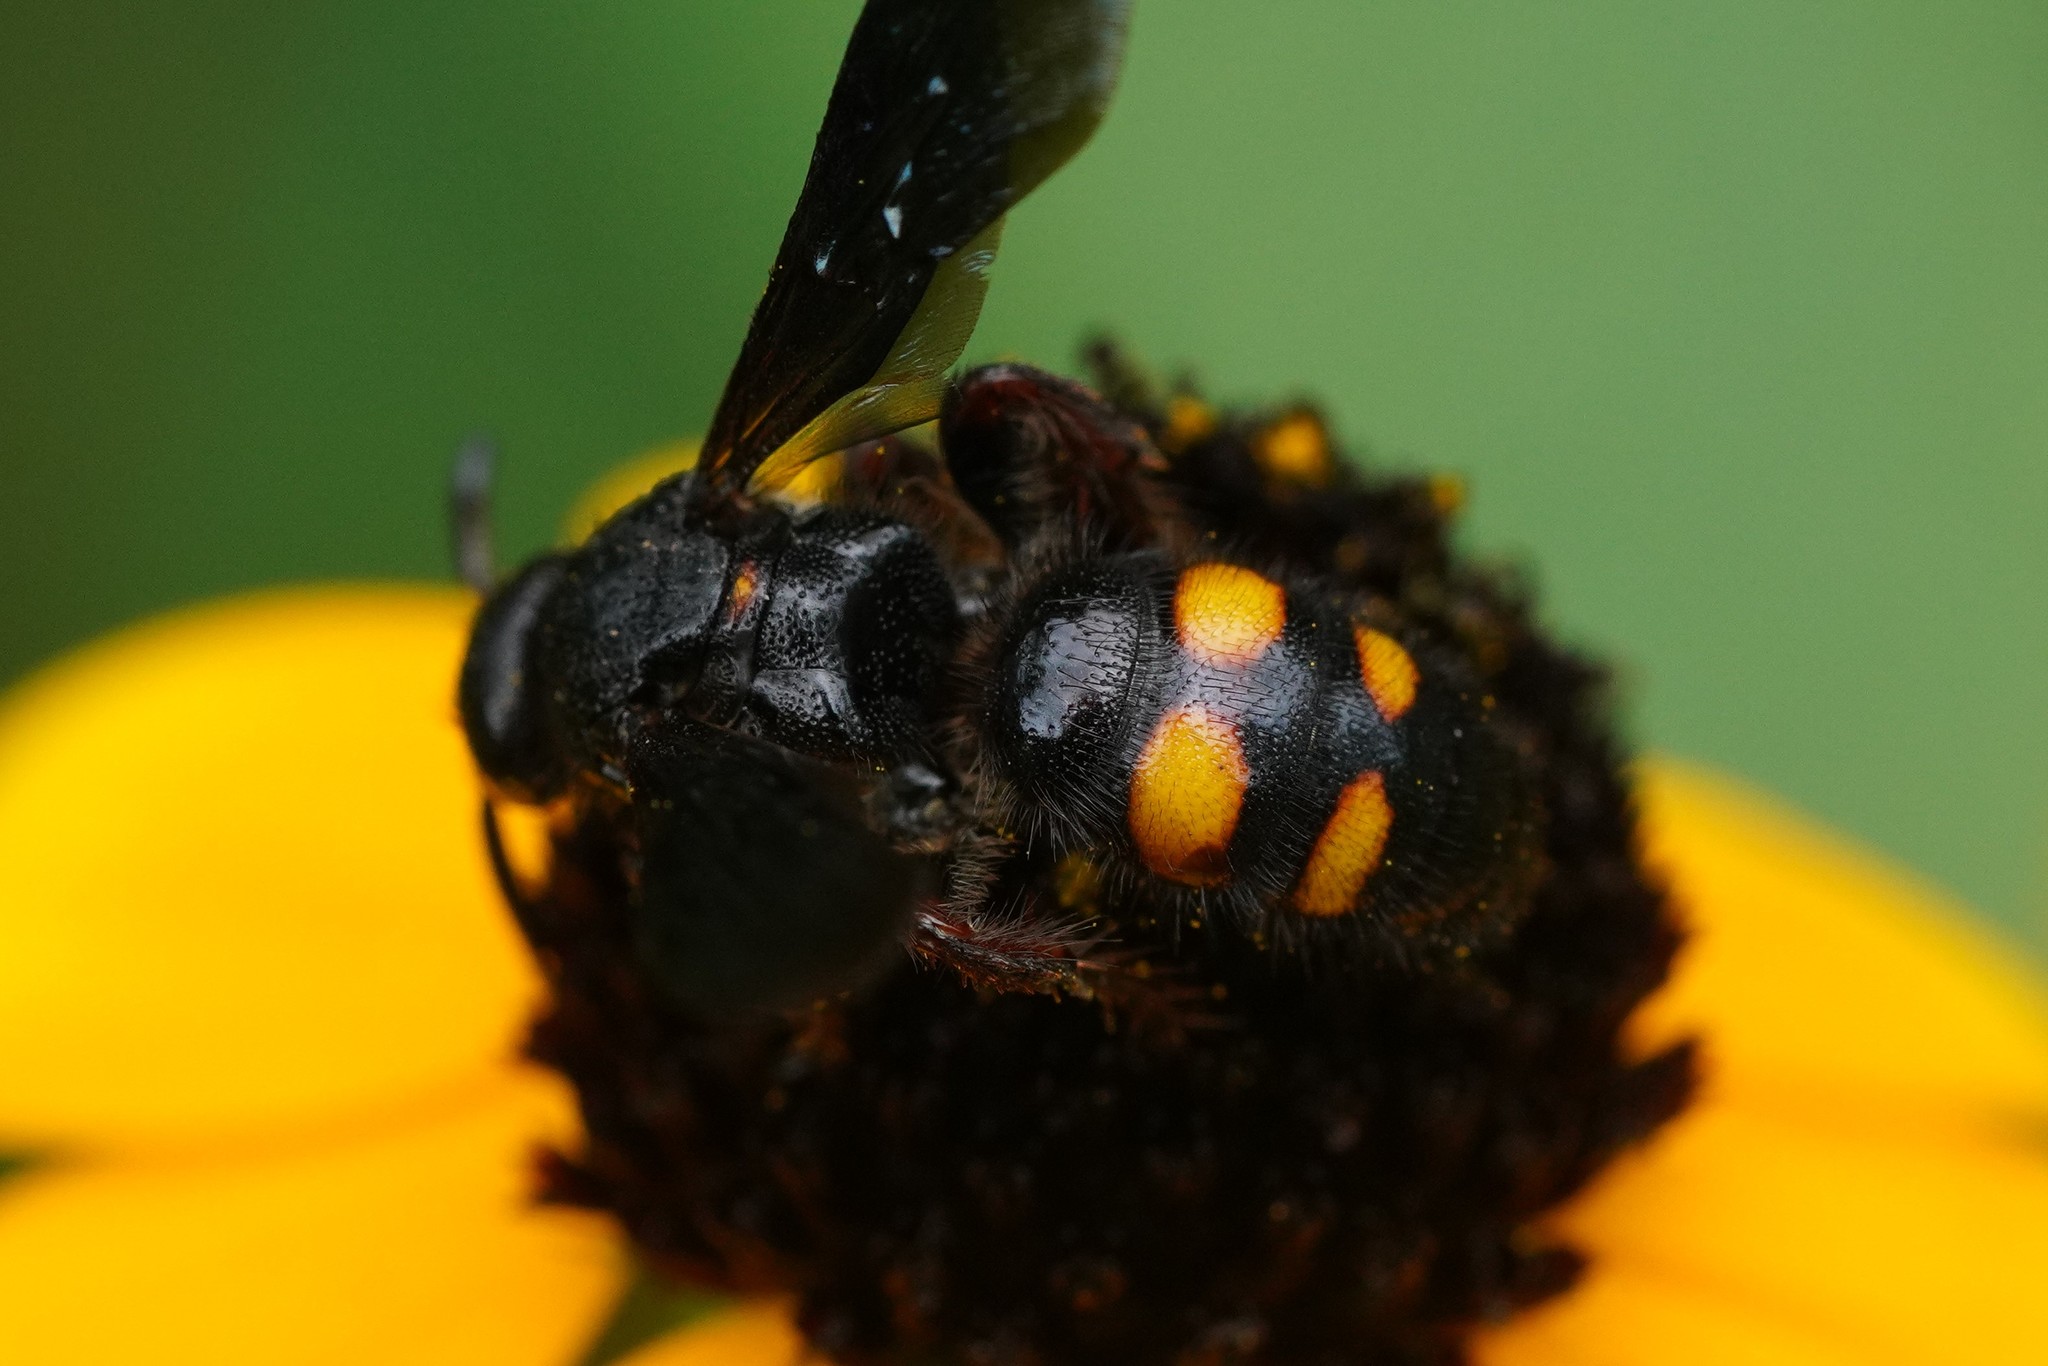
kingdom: Animalia
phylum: Arthropoda
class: Insecta
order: Hymenoptera
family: Scoliidae
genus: Scolia
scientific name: Scolia nobilitata
